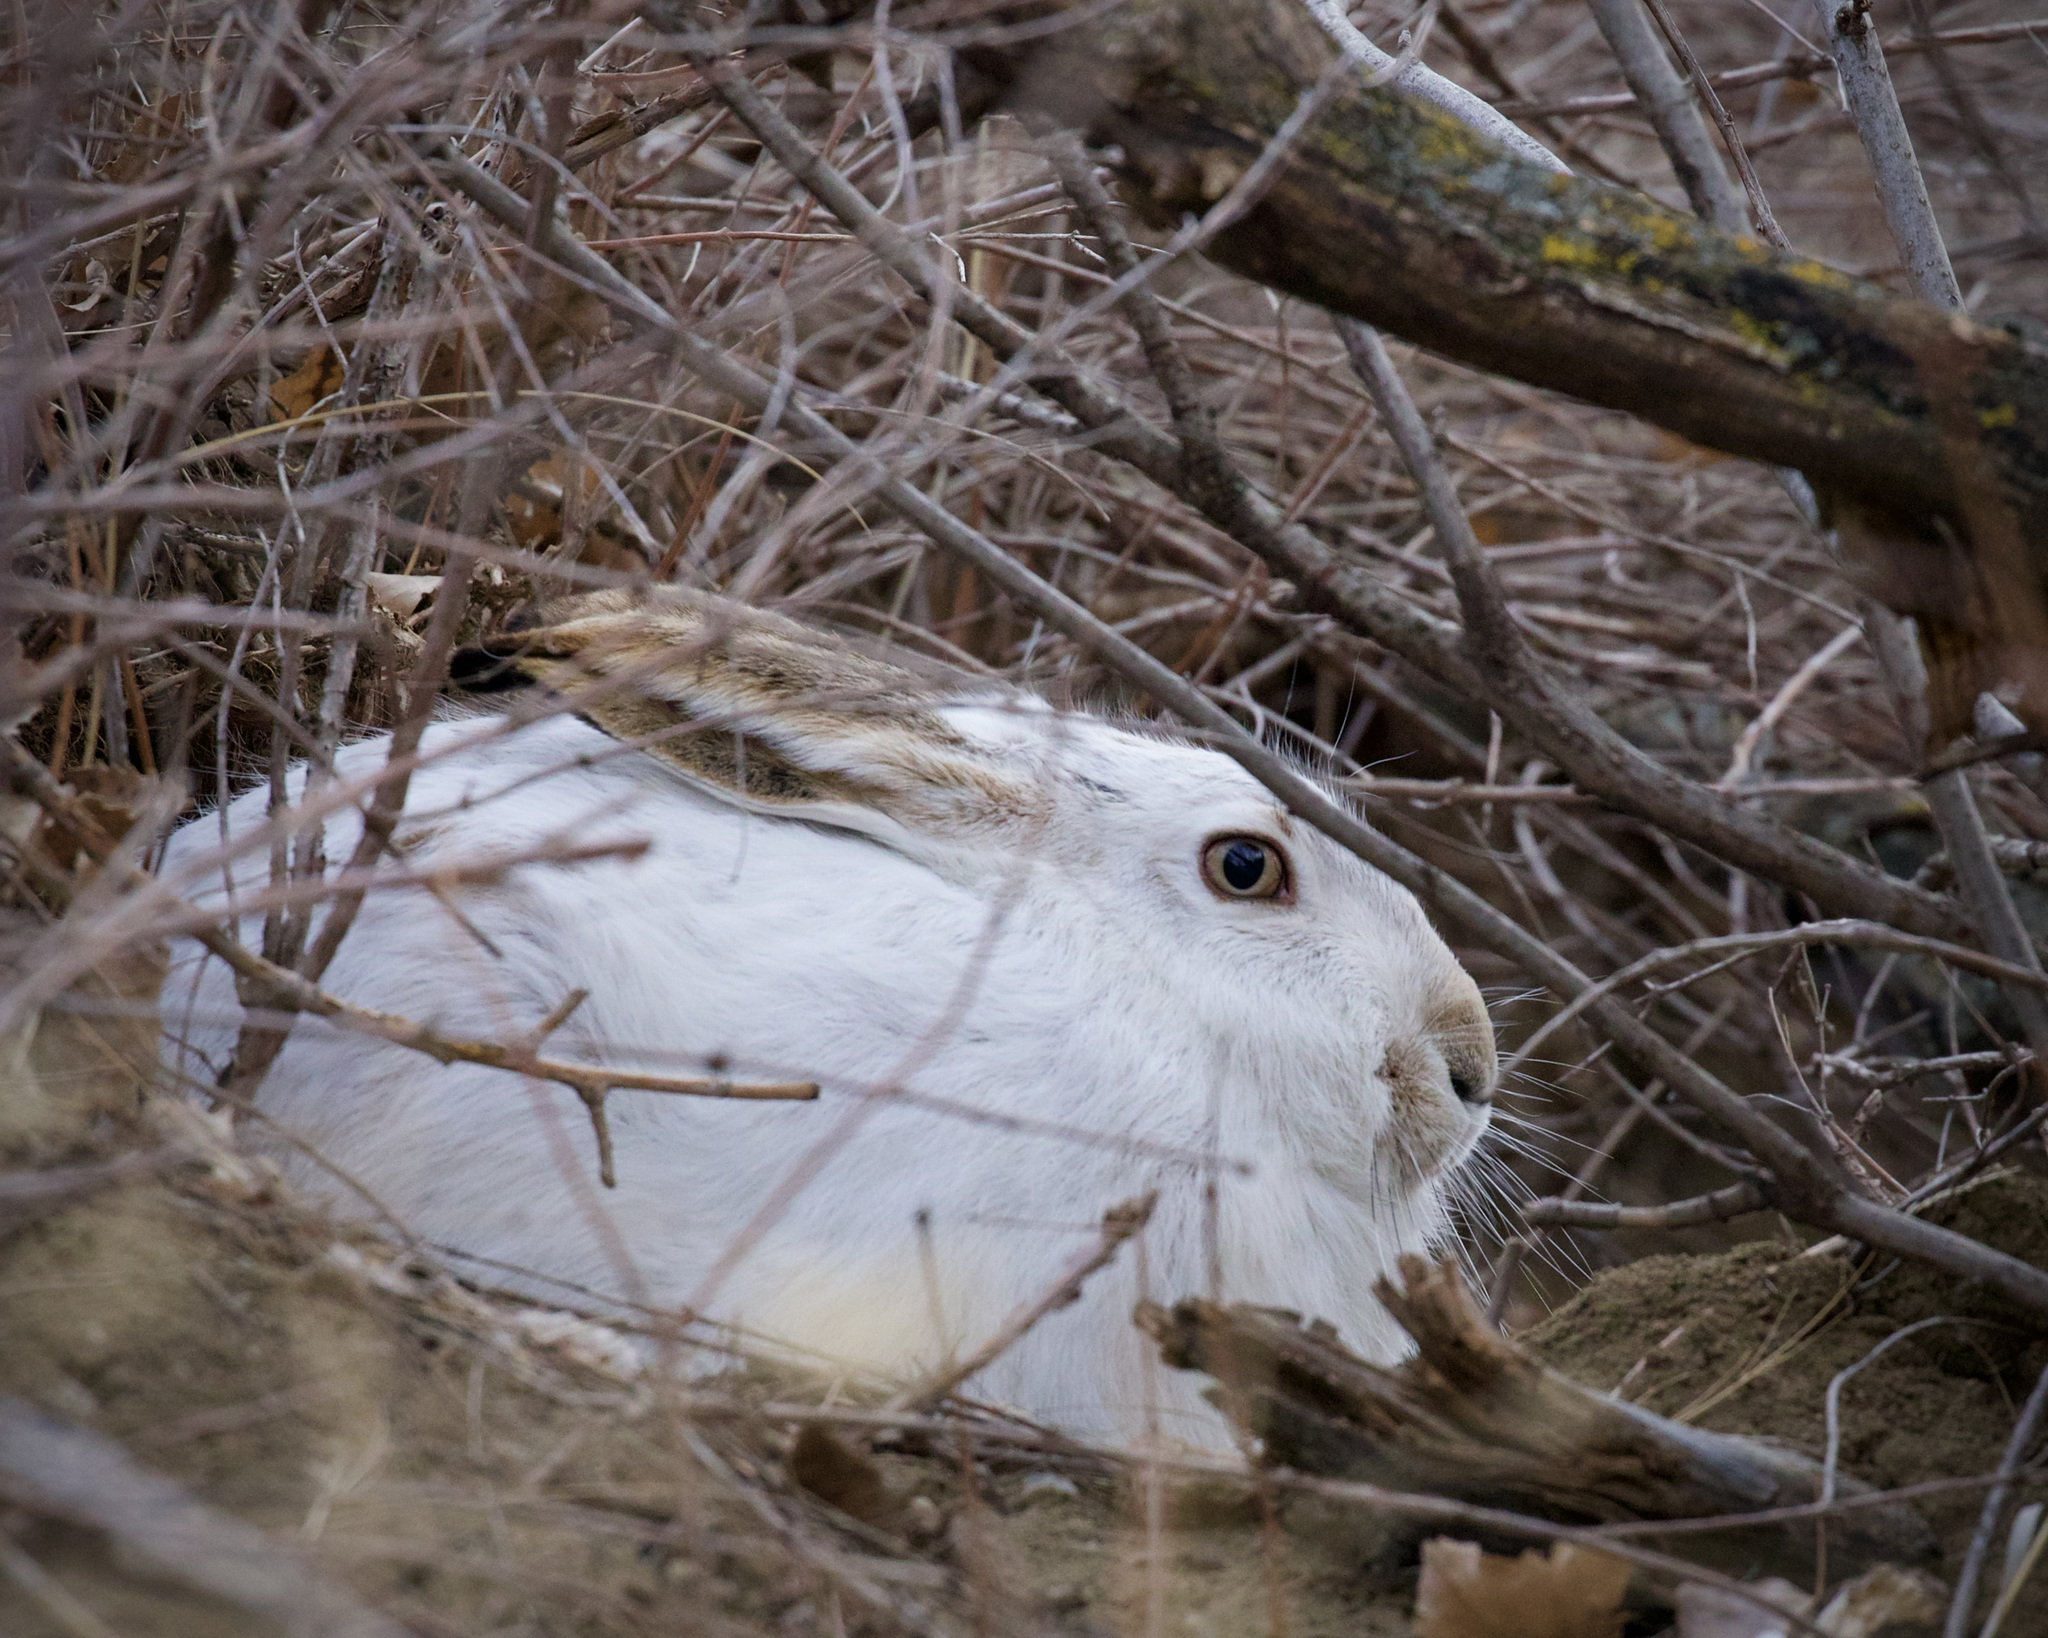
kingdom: Animalia
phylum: Chordata
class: Mammalia
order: Lagomorpha
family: Leporidae
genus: Lepus
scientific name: Lepus townsendii
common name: White-tailed jackrabbit
